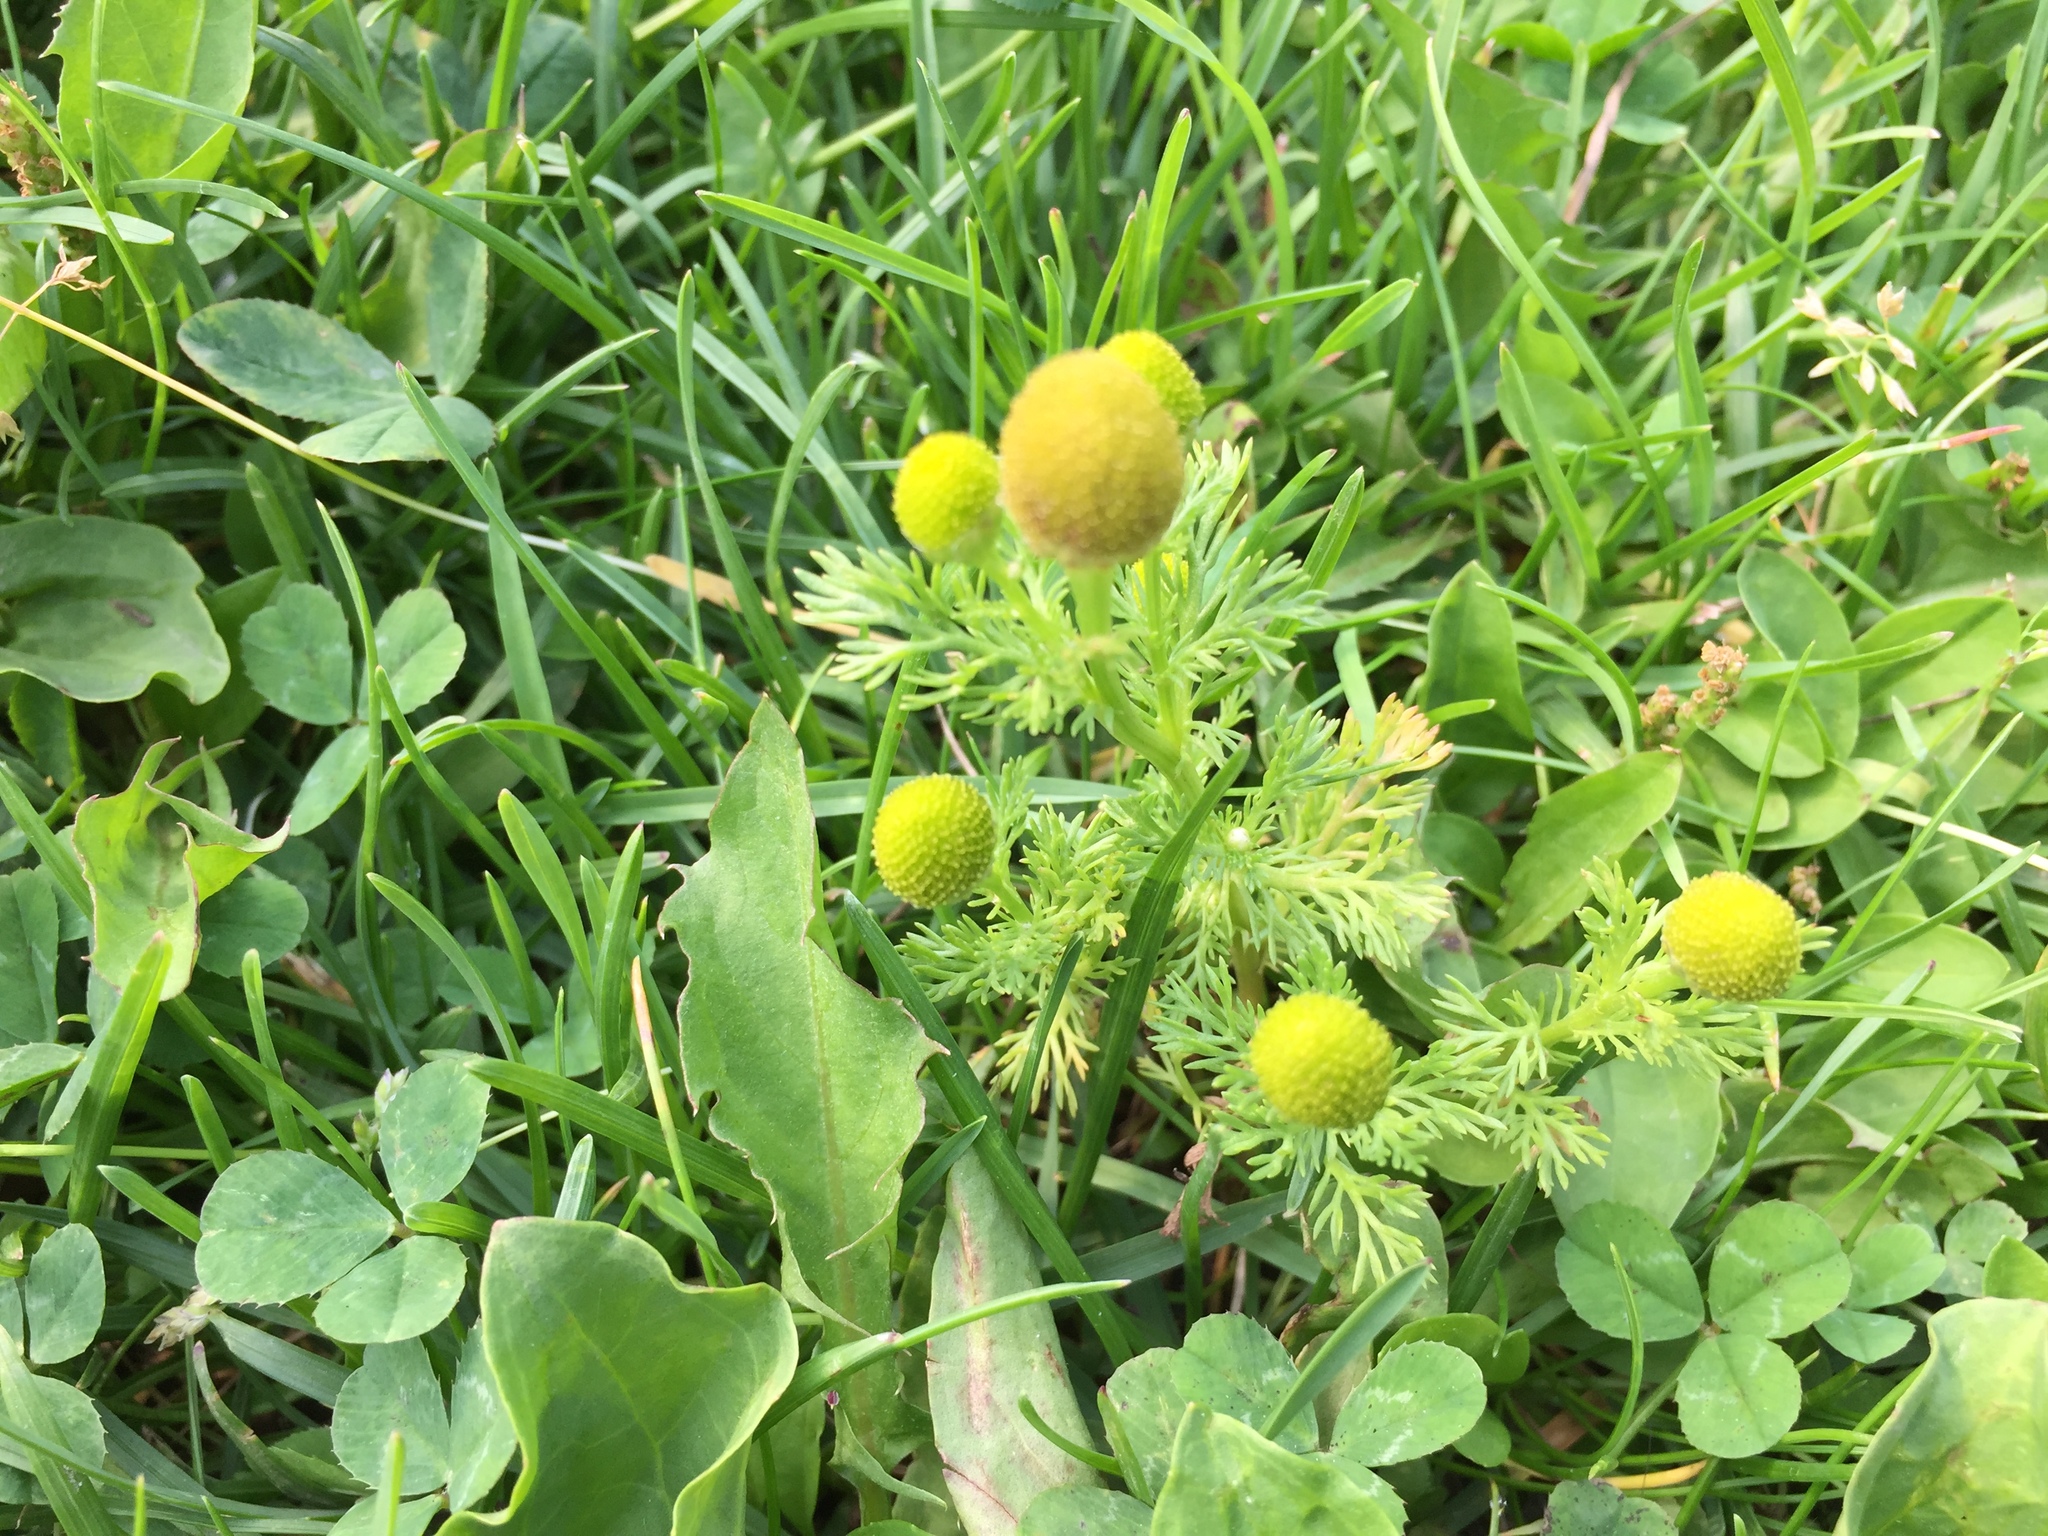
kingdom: Plantae
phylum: Tracheophyta
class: Magnoliopsida
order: Asterales
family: Asteraceae
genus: Matricaria
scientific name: Matricaria discoidea
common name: Disc mayweed
